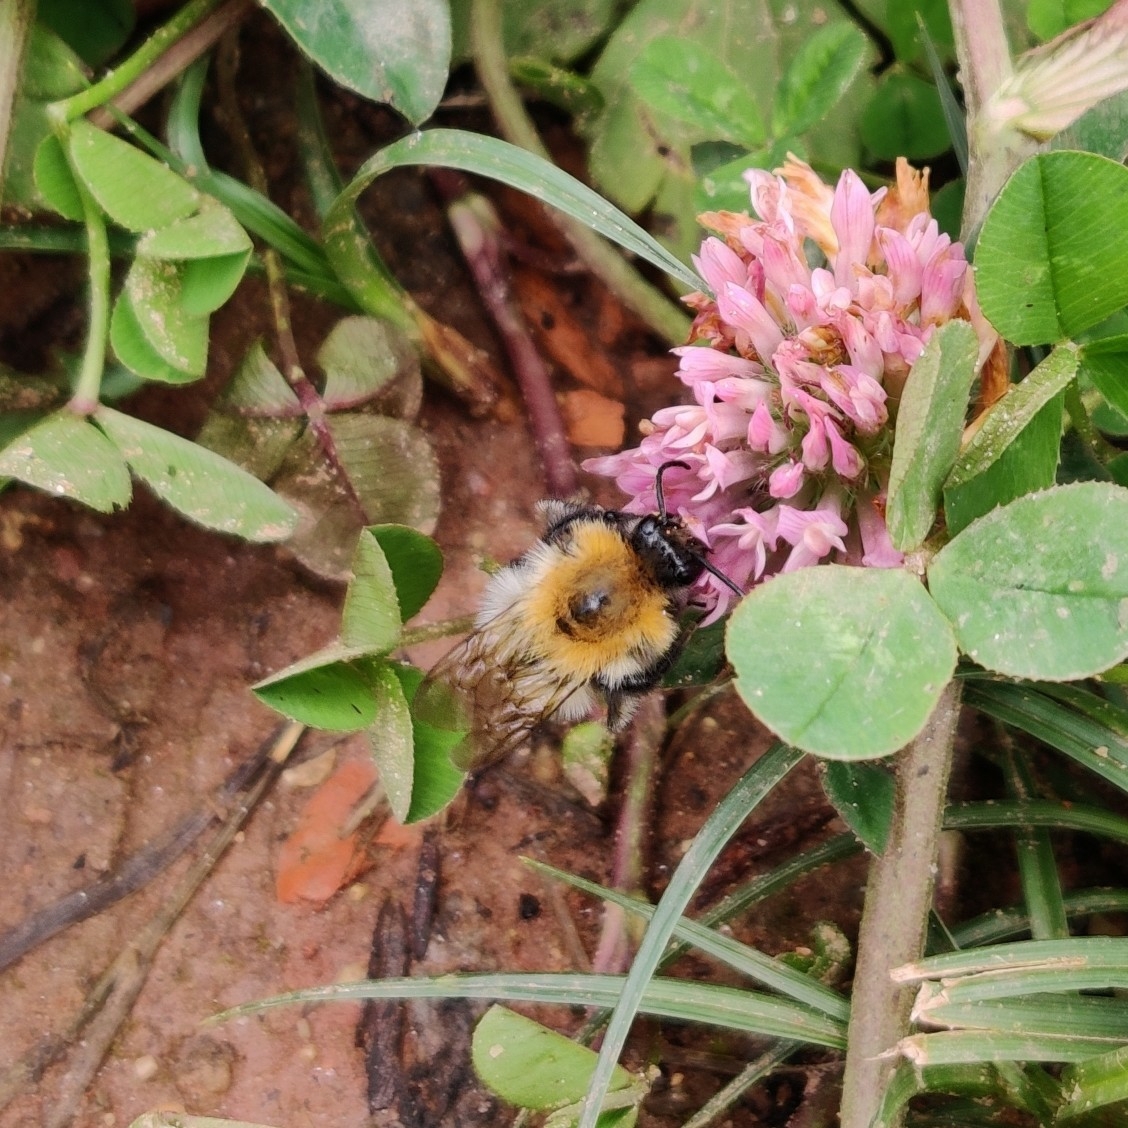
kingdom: Animalia
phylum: Arthropoda
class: Insecta
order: Hymenoptera
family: Apidae
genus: Bombus
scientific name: Bombus pascuorum
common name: Common carder bee
